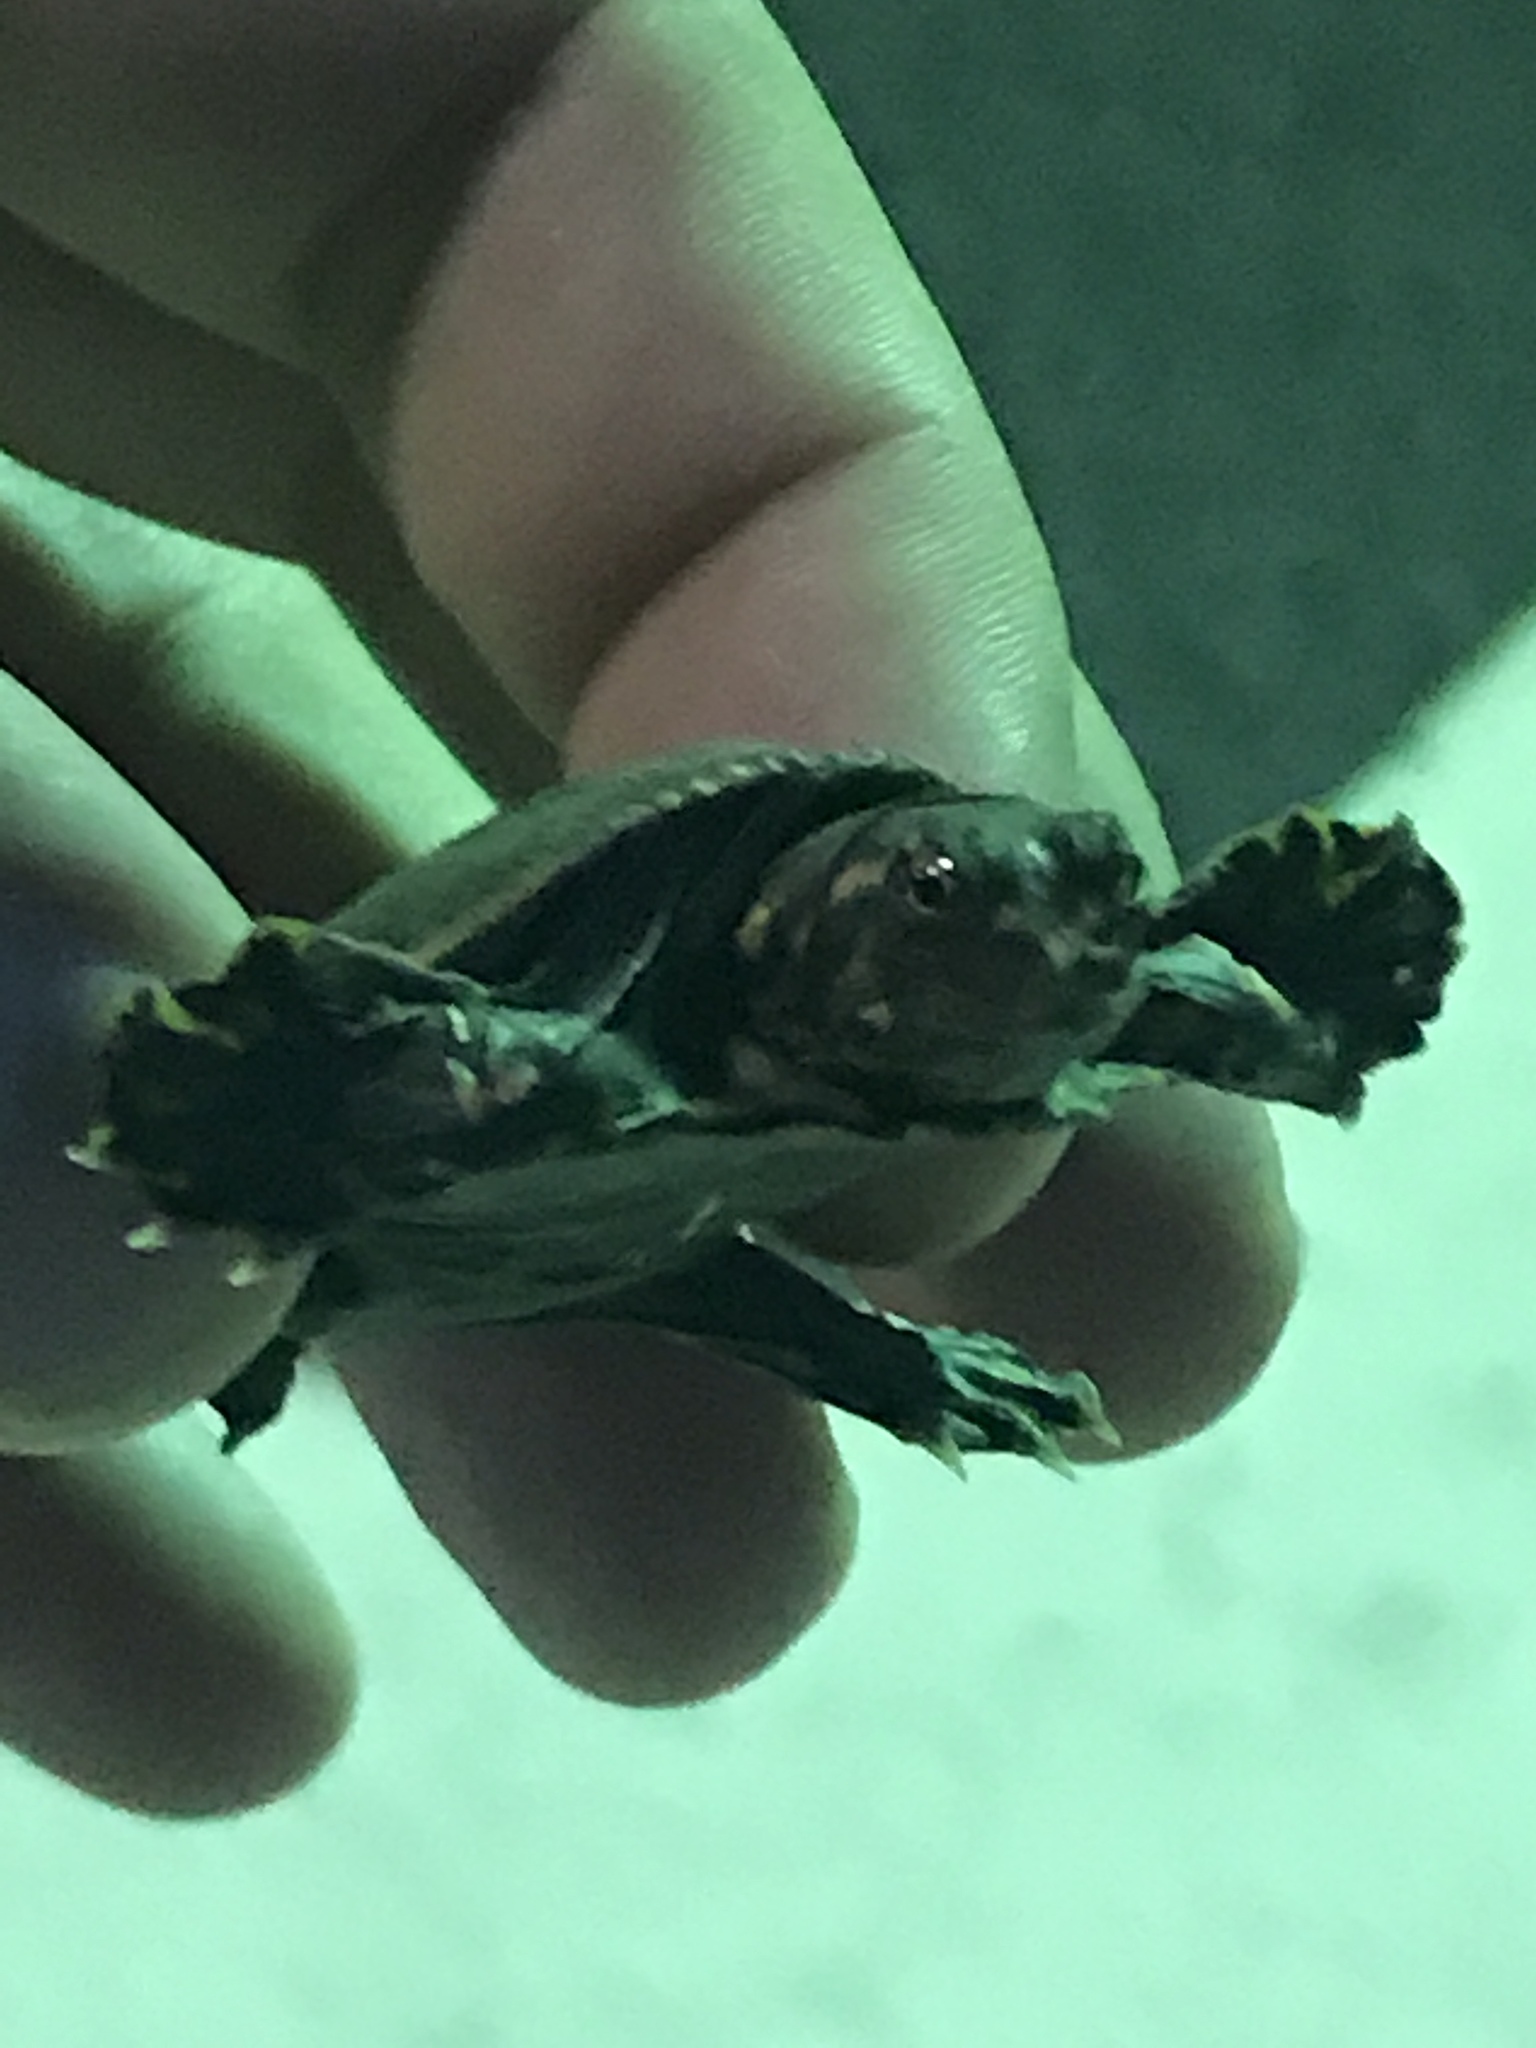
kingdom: Animalia
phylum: Chordata
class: Testudines
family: Trionychidae
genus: Apalone
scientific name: Apalone ferox
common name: Florida softshell turtle
